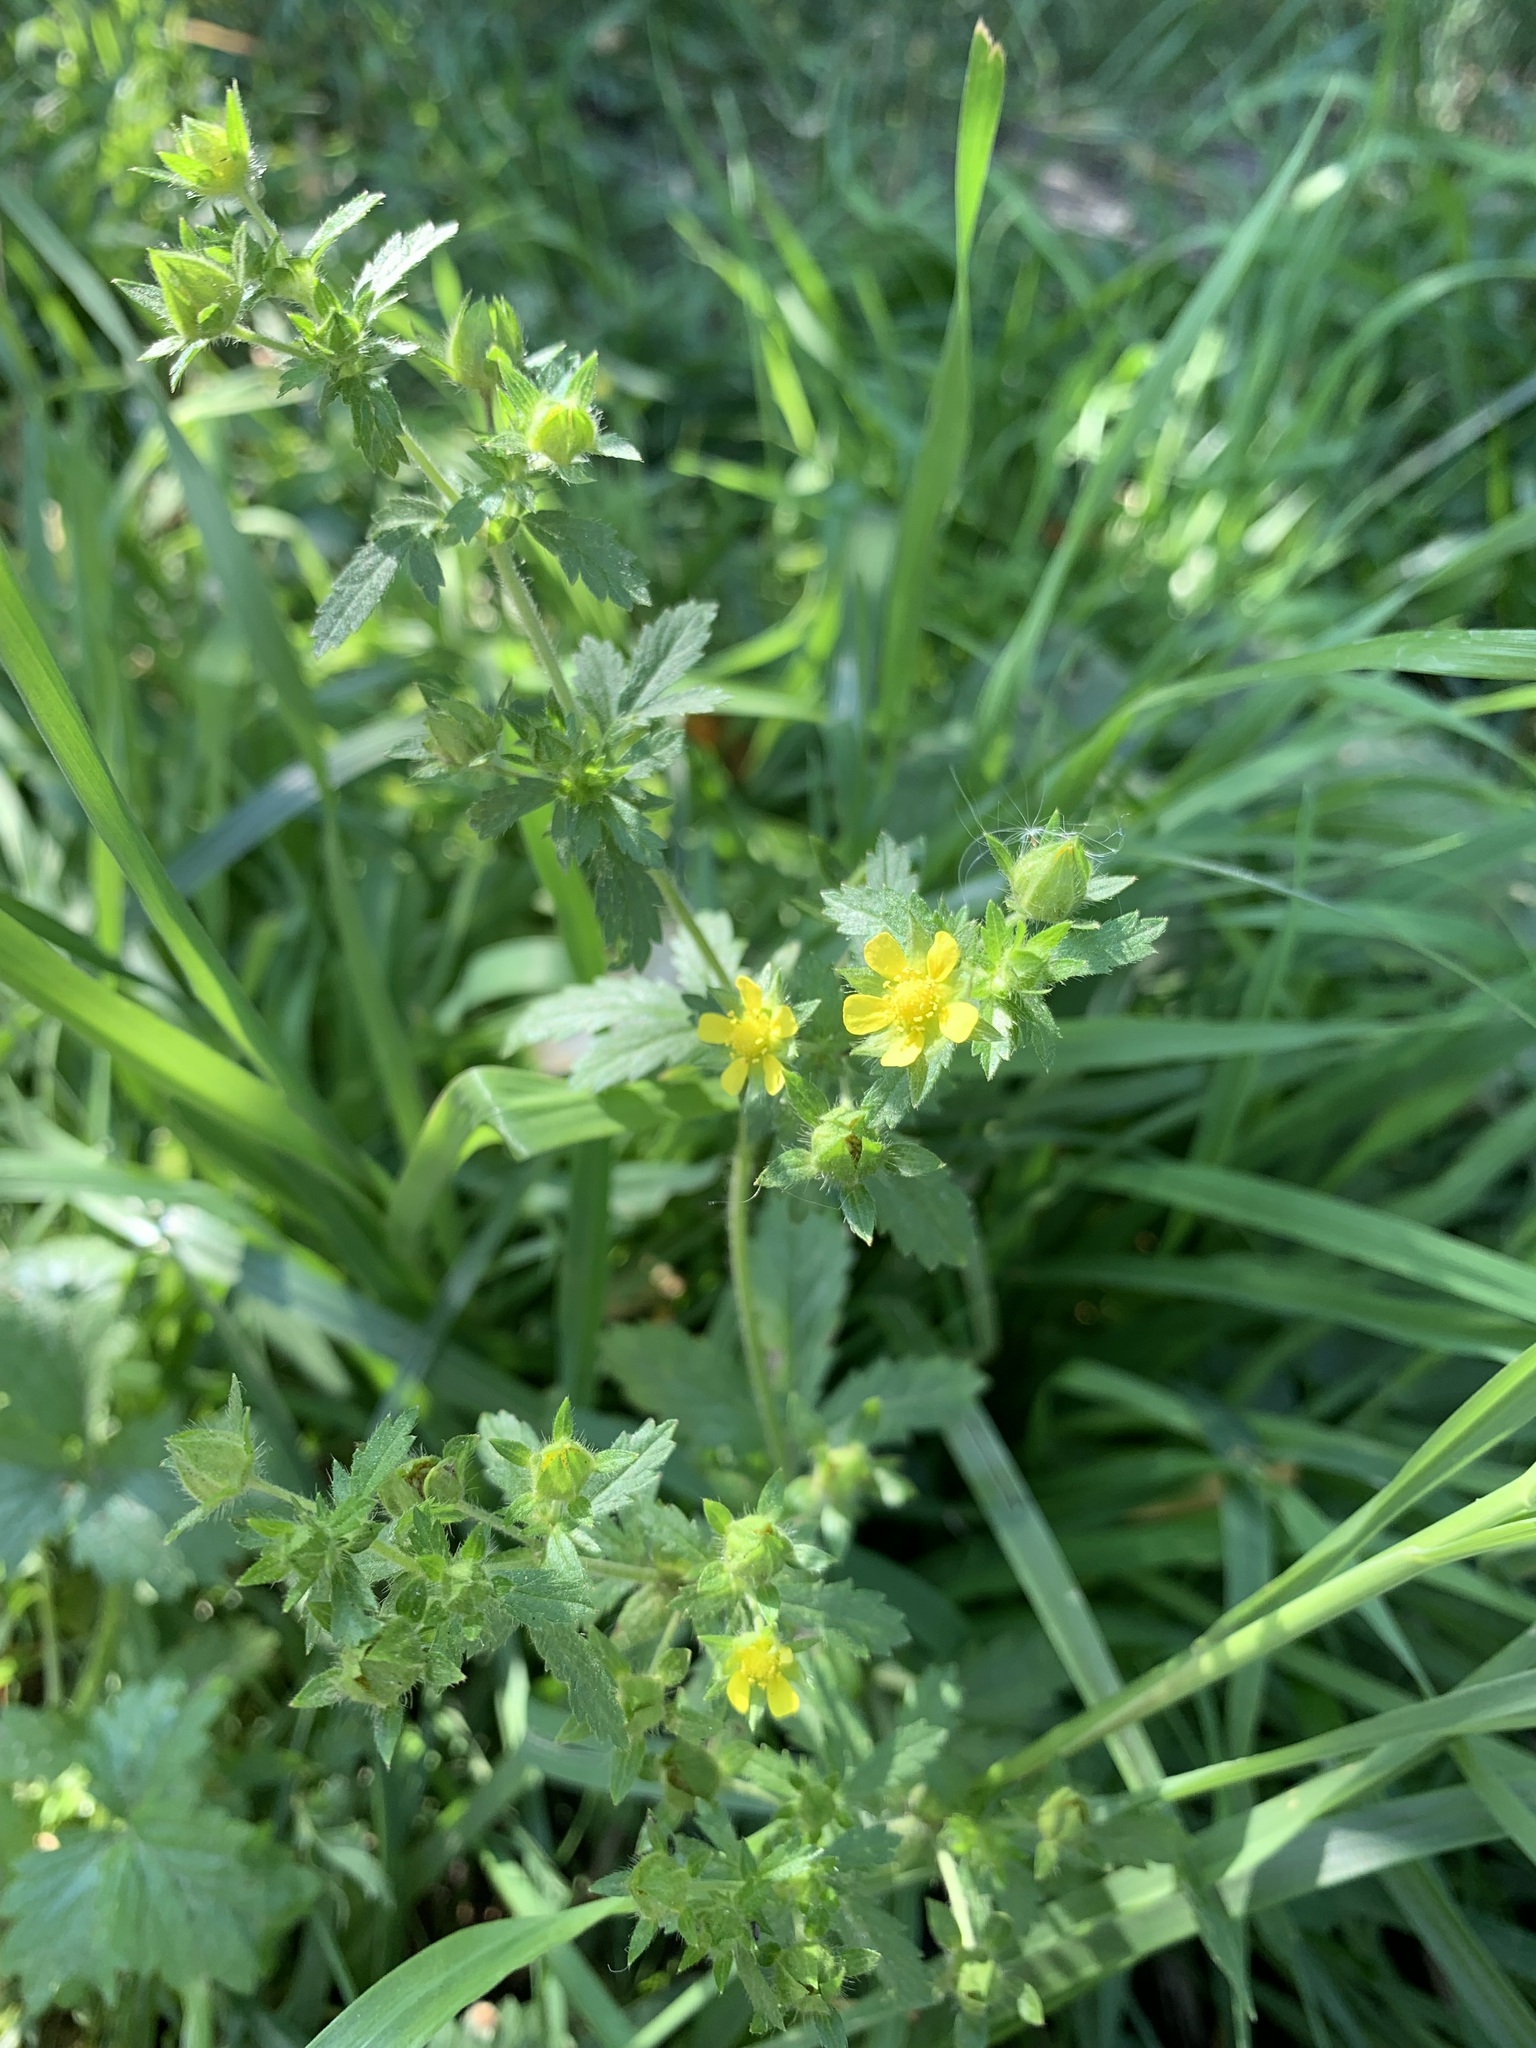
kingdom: Plantae
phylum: Tracheophyta
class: Magnoliopsida
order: Rosales
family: Rosaceae
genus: Potentilla
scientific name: Potentilla norvegica
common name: Ternate-leaved cinquefoil
